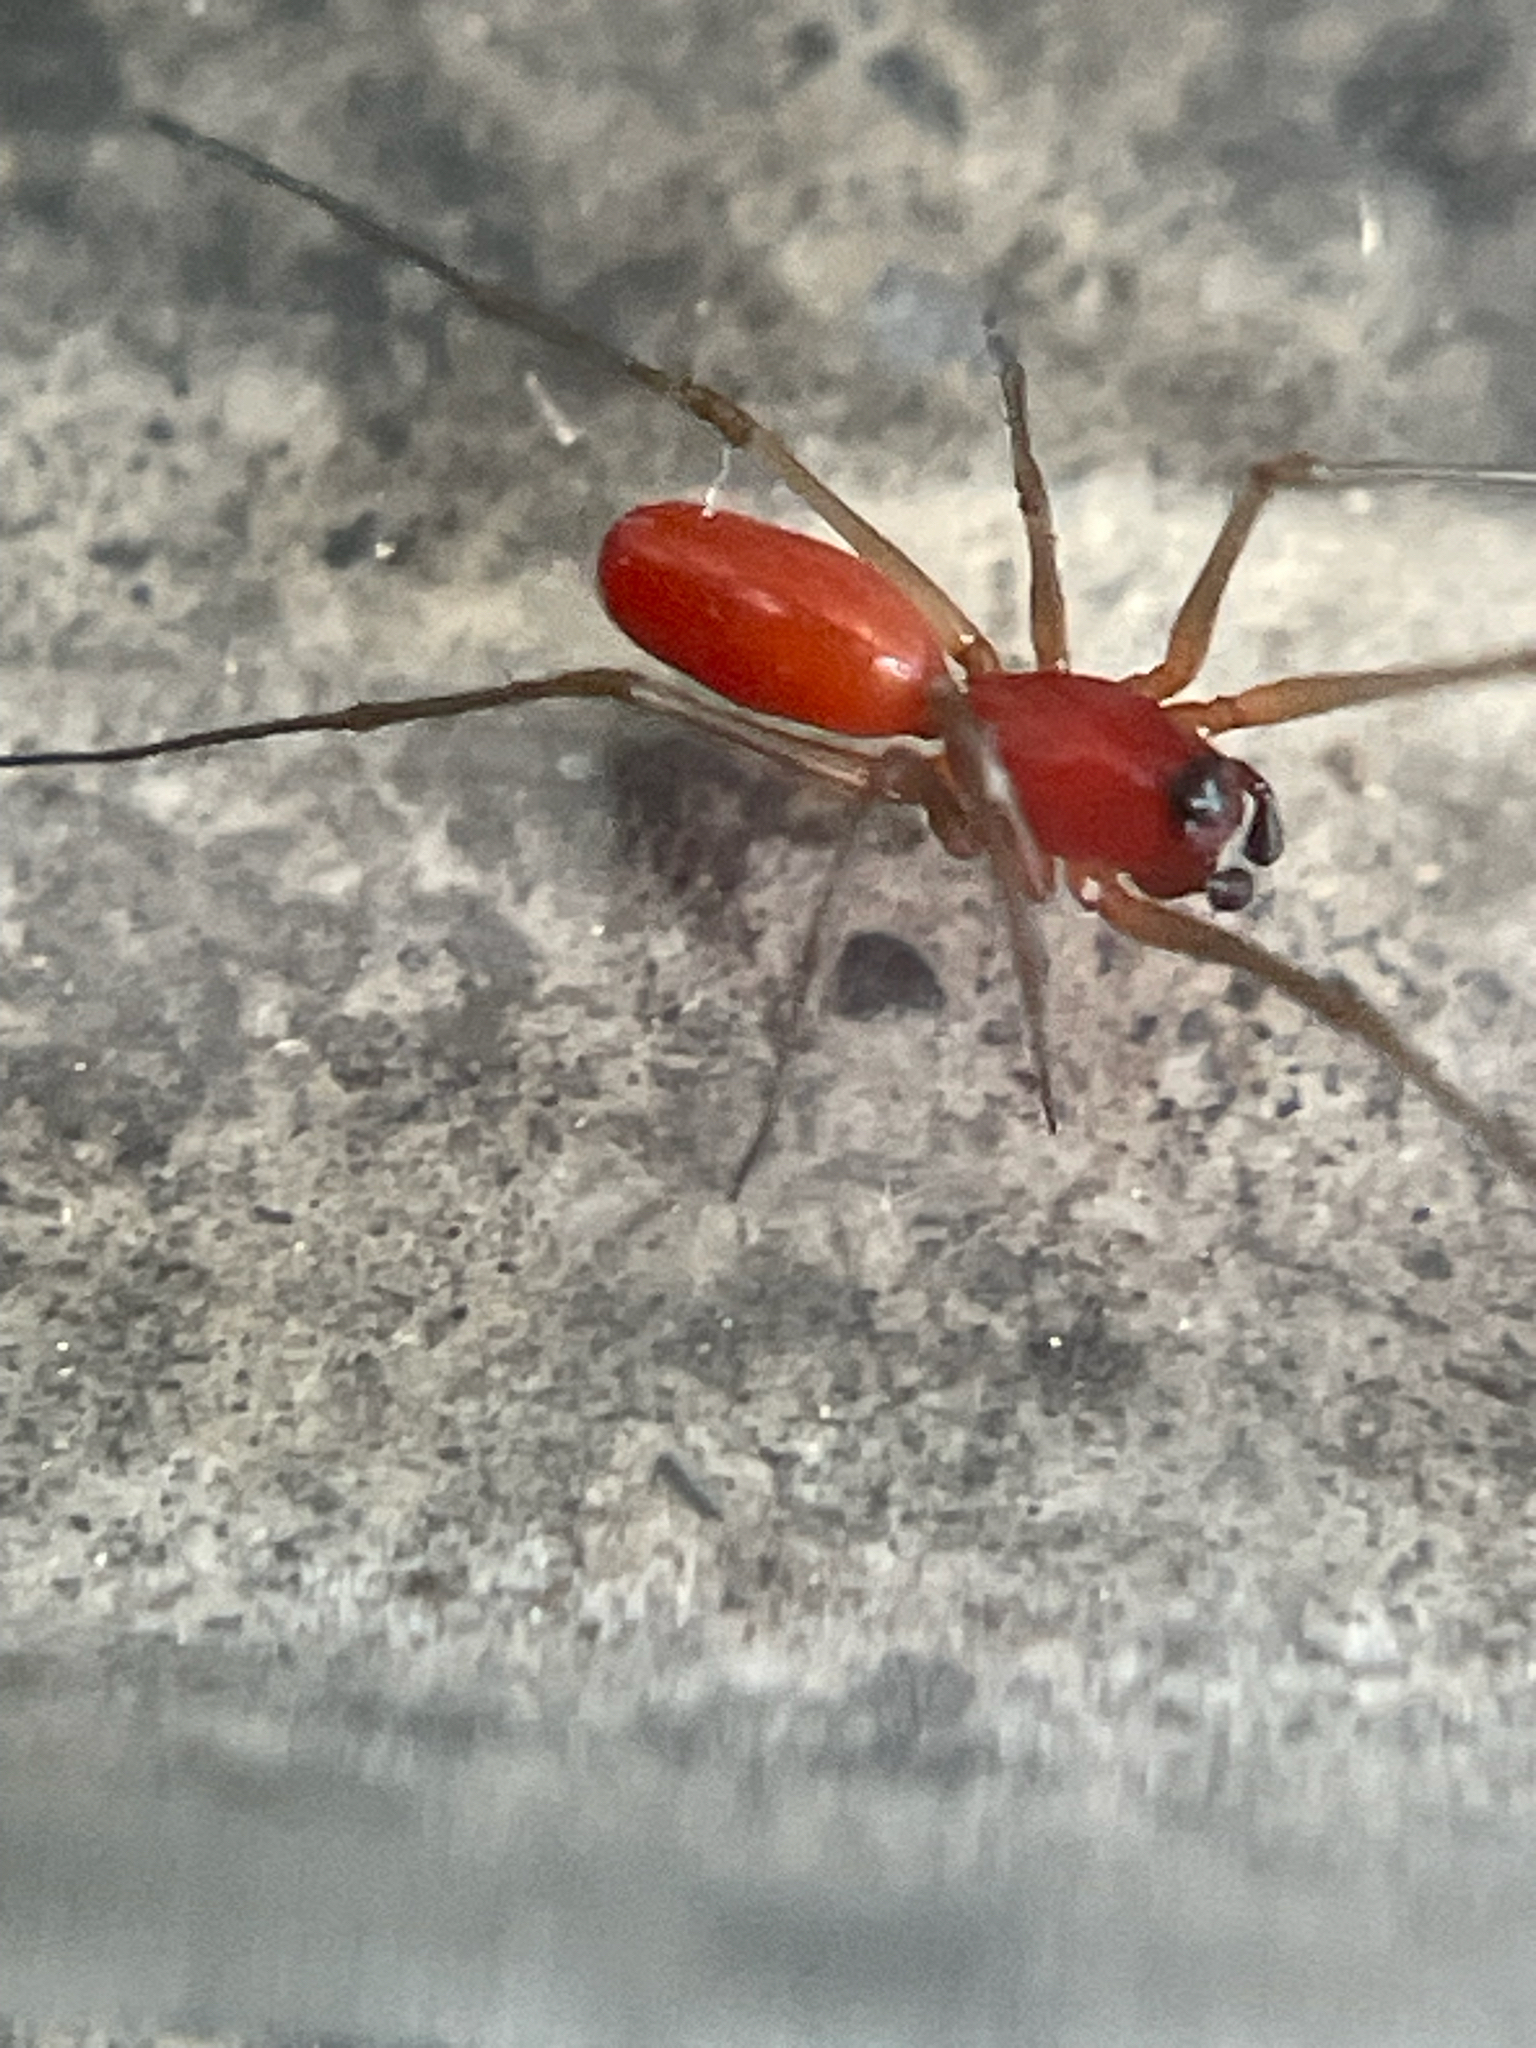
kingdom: Animalia
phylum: Arthropoda
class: Arachnida
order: Araneae
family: Linyphiidae
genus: Florinda
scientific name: Florinda coccinea
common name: Black-tailed red sheetweaver
